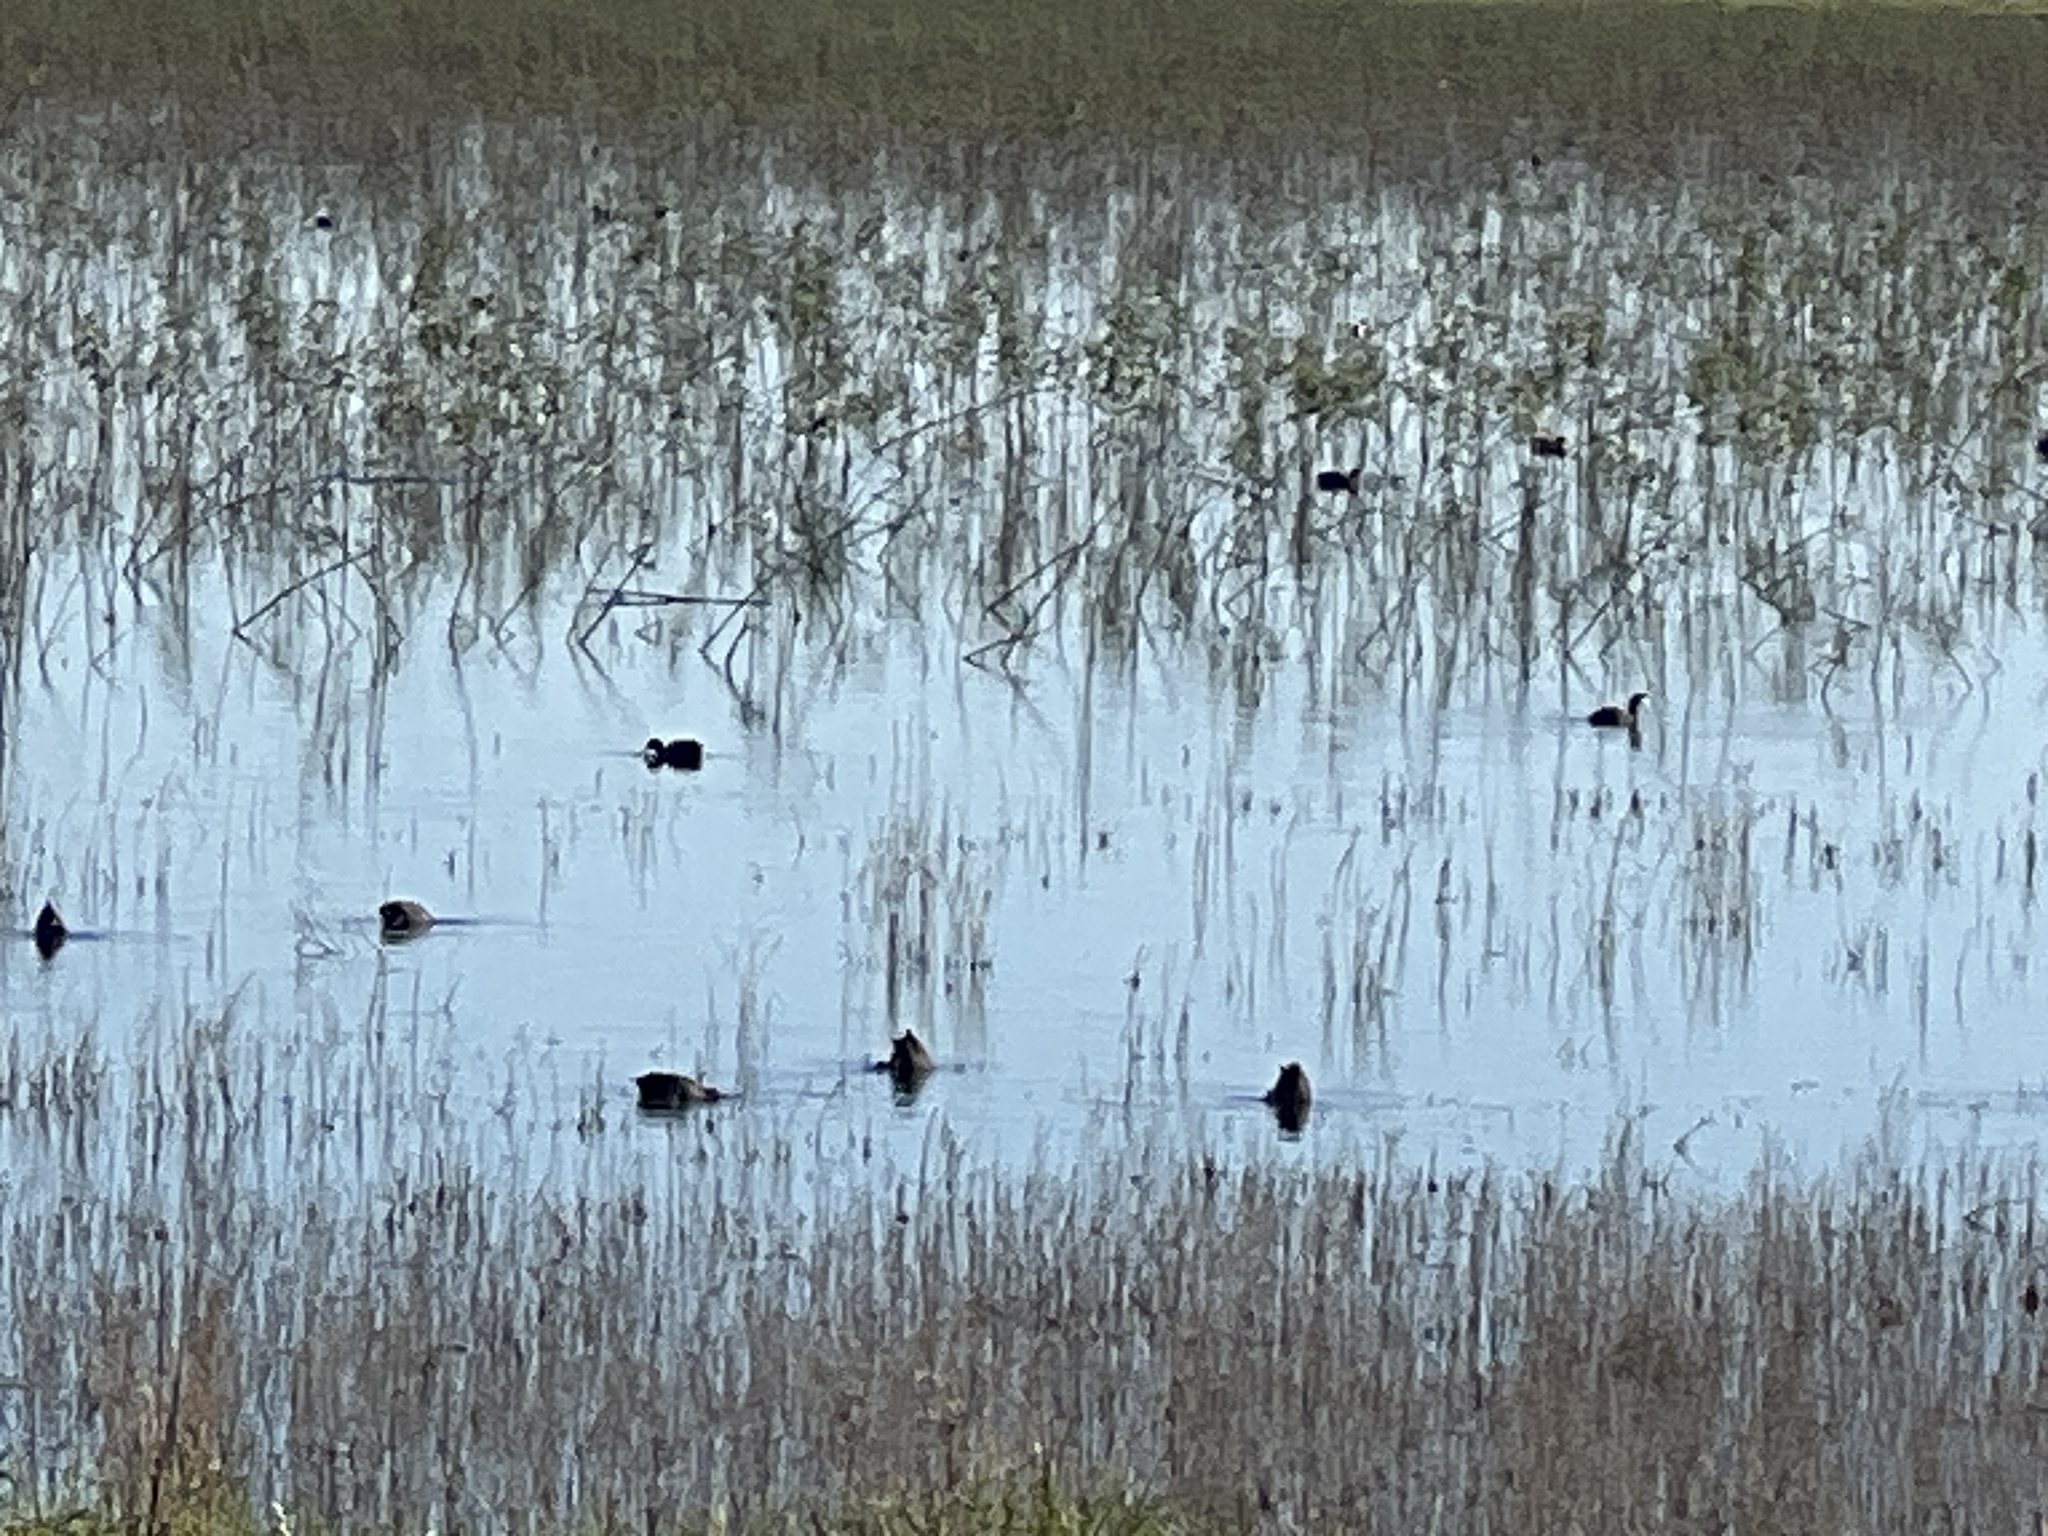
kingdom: Animalia
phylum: Chordata
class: Aves
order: Gruiformes
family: Rallidae
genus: Fulica
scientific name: Fulica americana
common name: American coot
